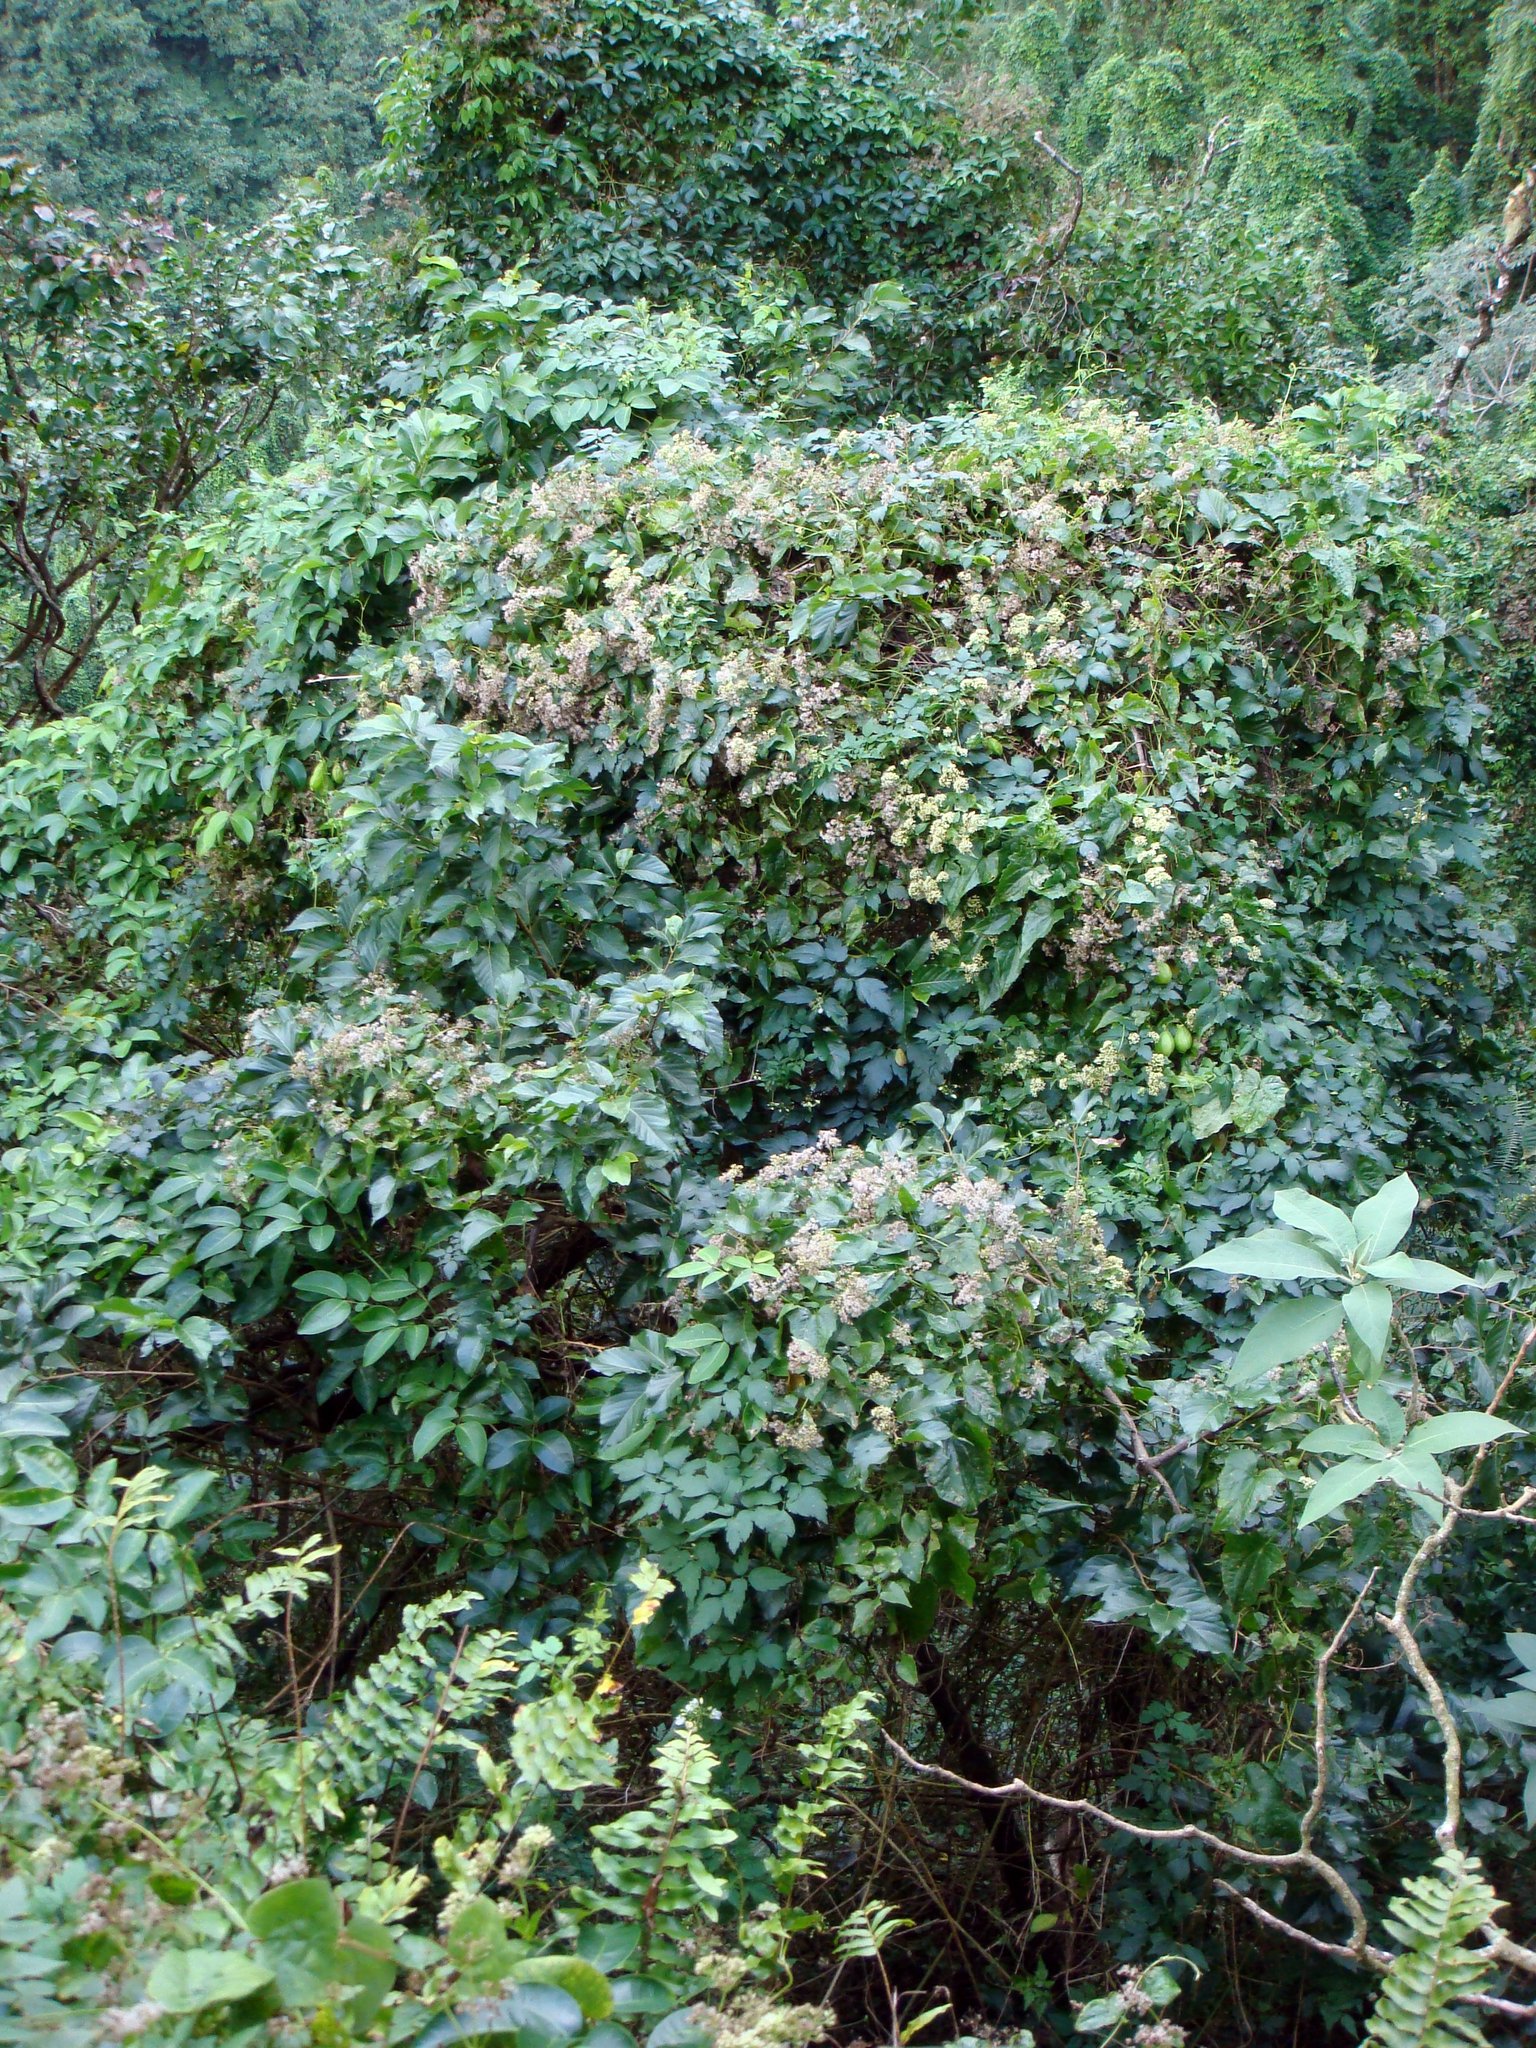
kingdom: Plantae
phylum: Tracheophyta
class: Magnoliopsida
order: Malvales
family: Malvaceae
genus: Grewia
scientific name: Grewia crenata
